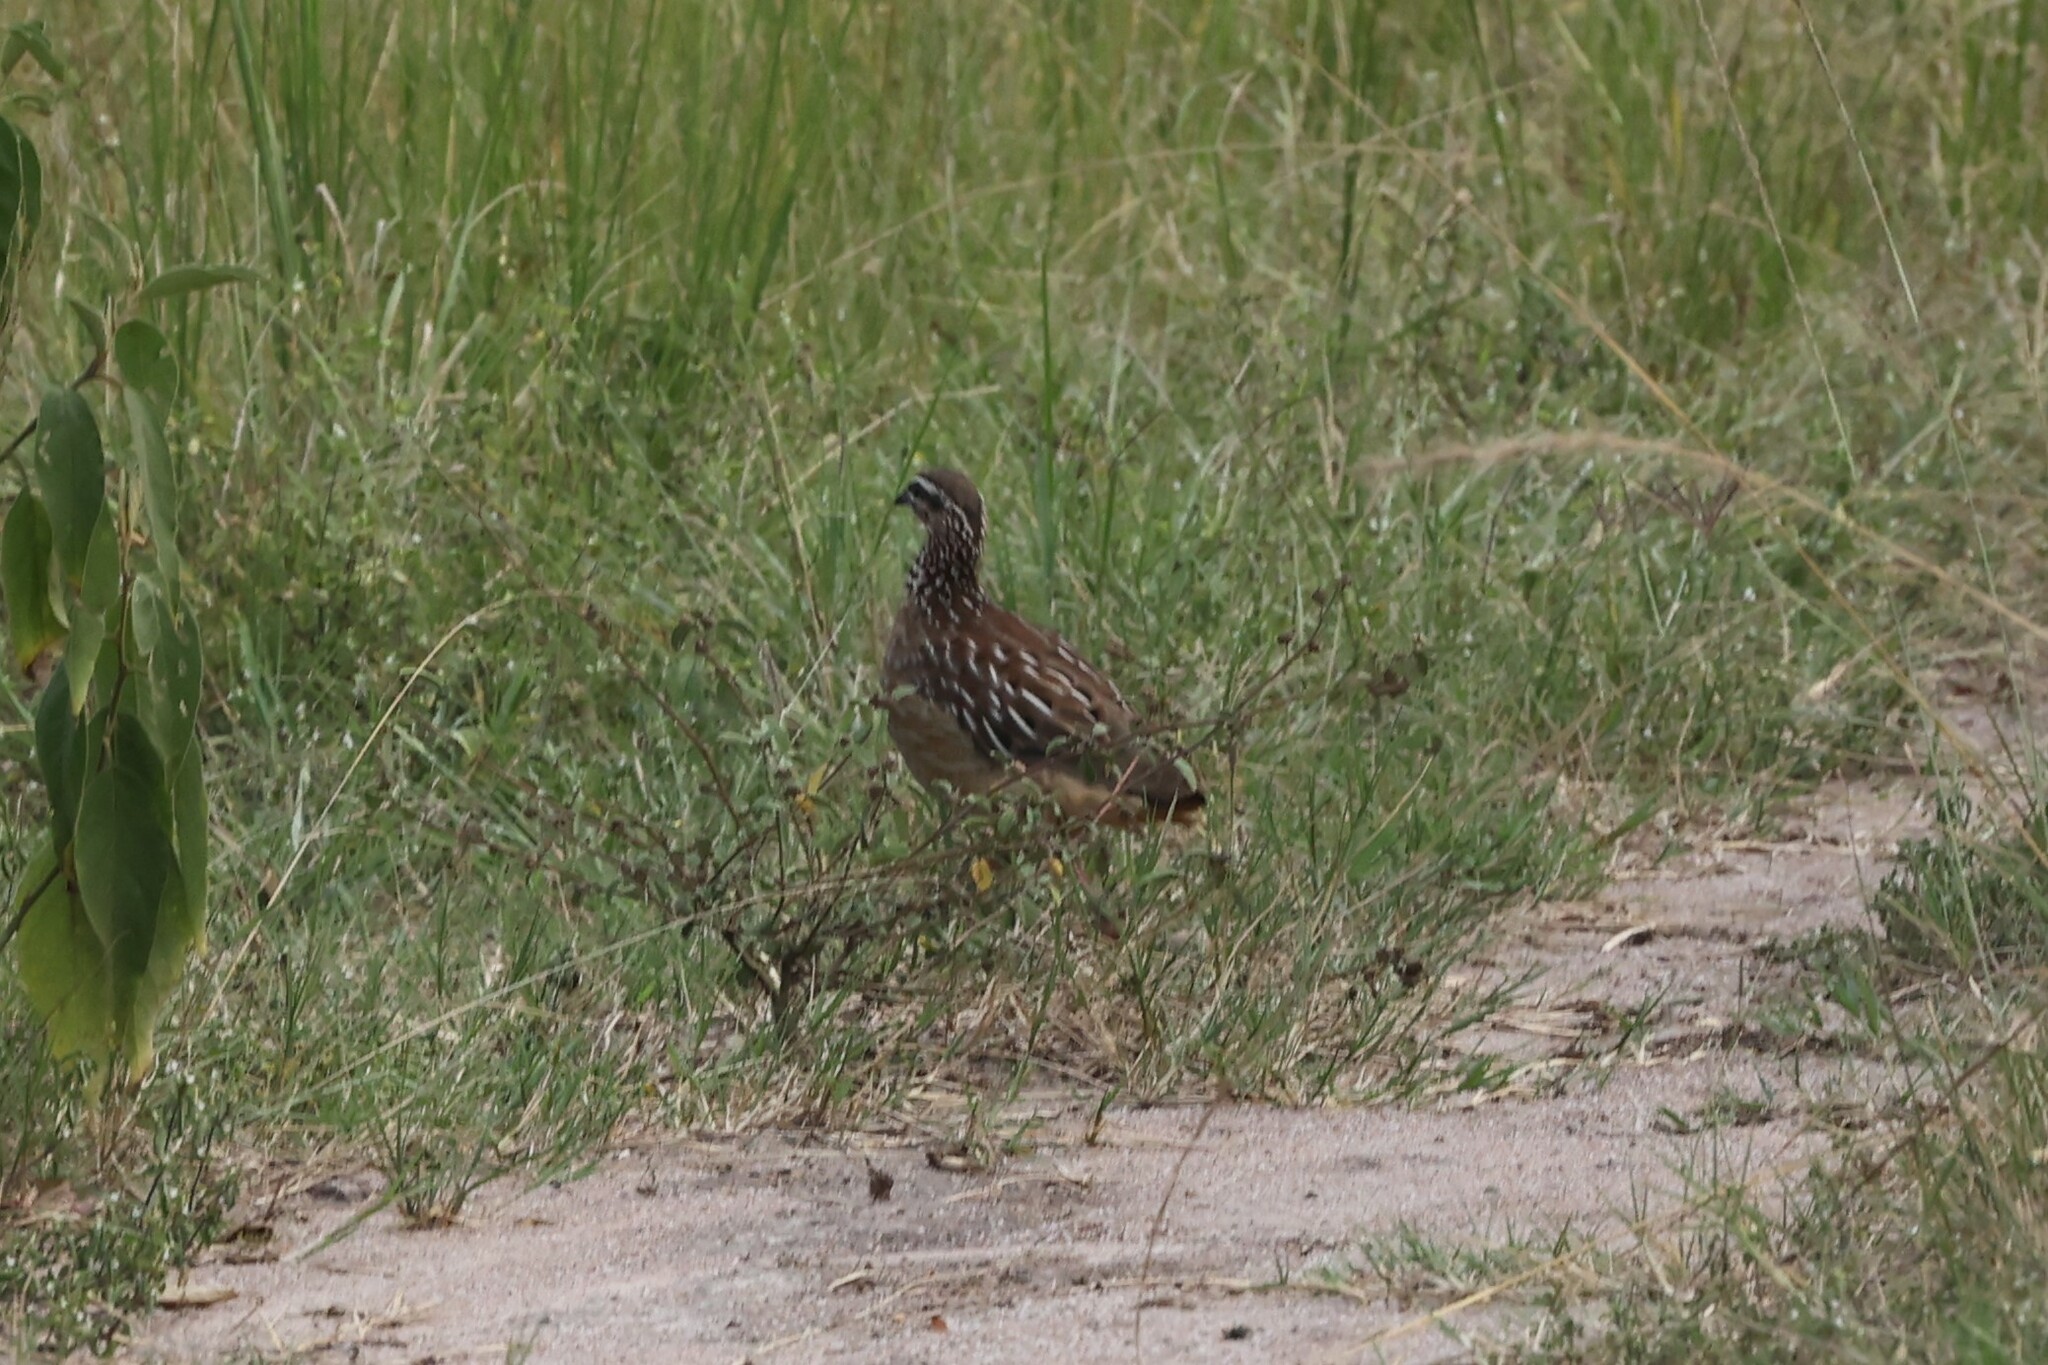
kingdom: Animalia
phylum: Chordata
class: Aves
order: Galliformes
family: Phasianidae
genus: Ortygornis
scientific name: Ortygornis sephaena
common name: Crested francolin
